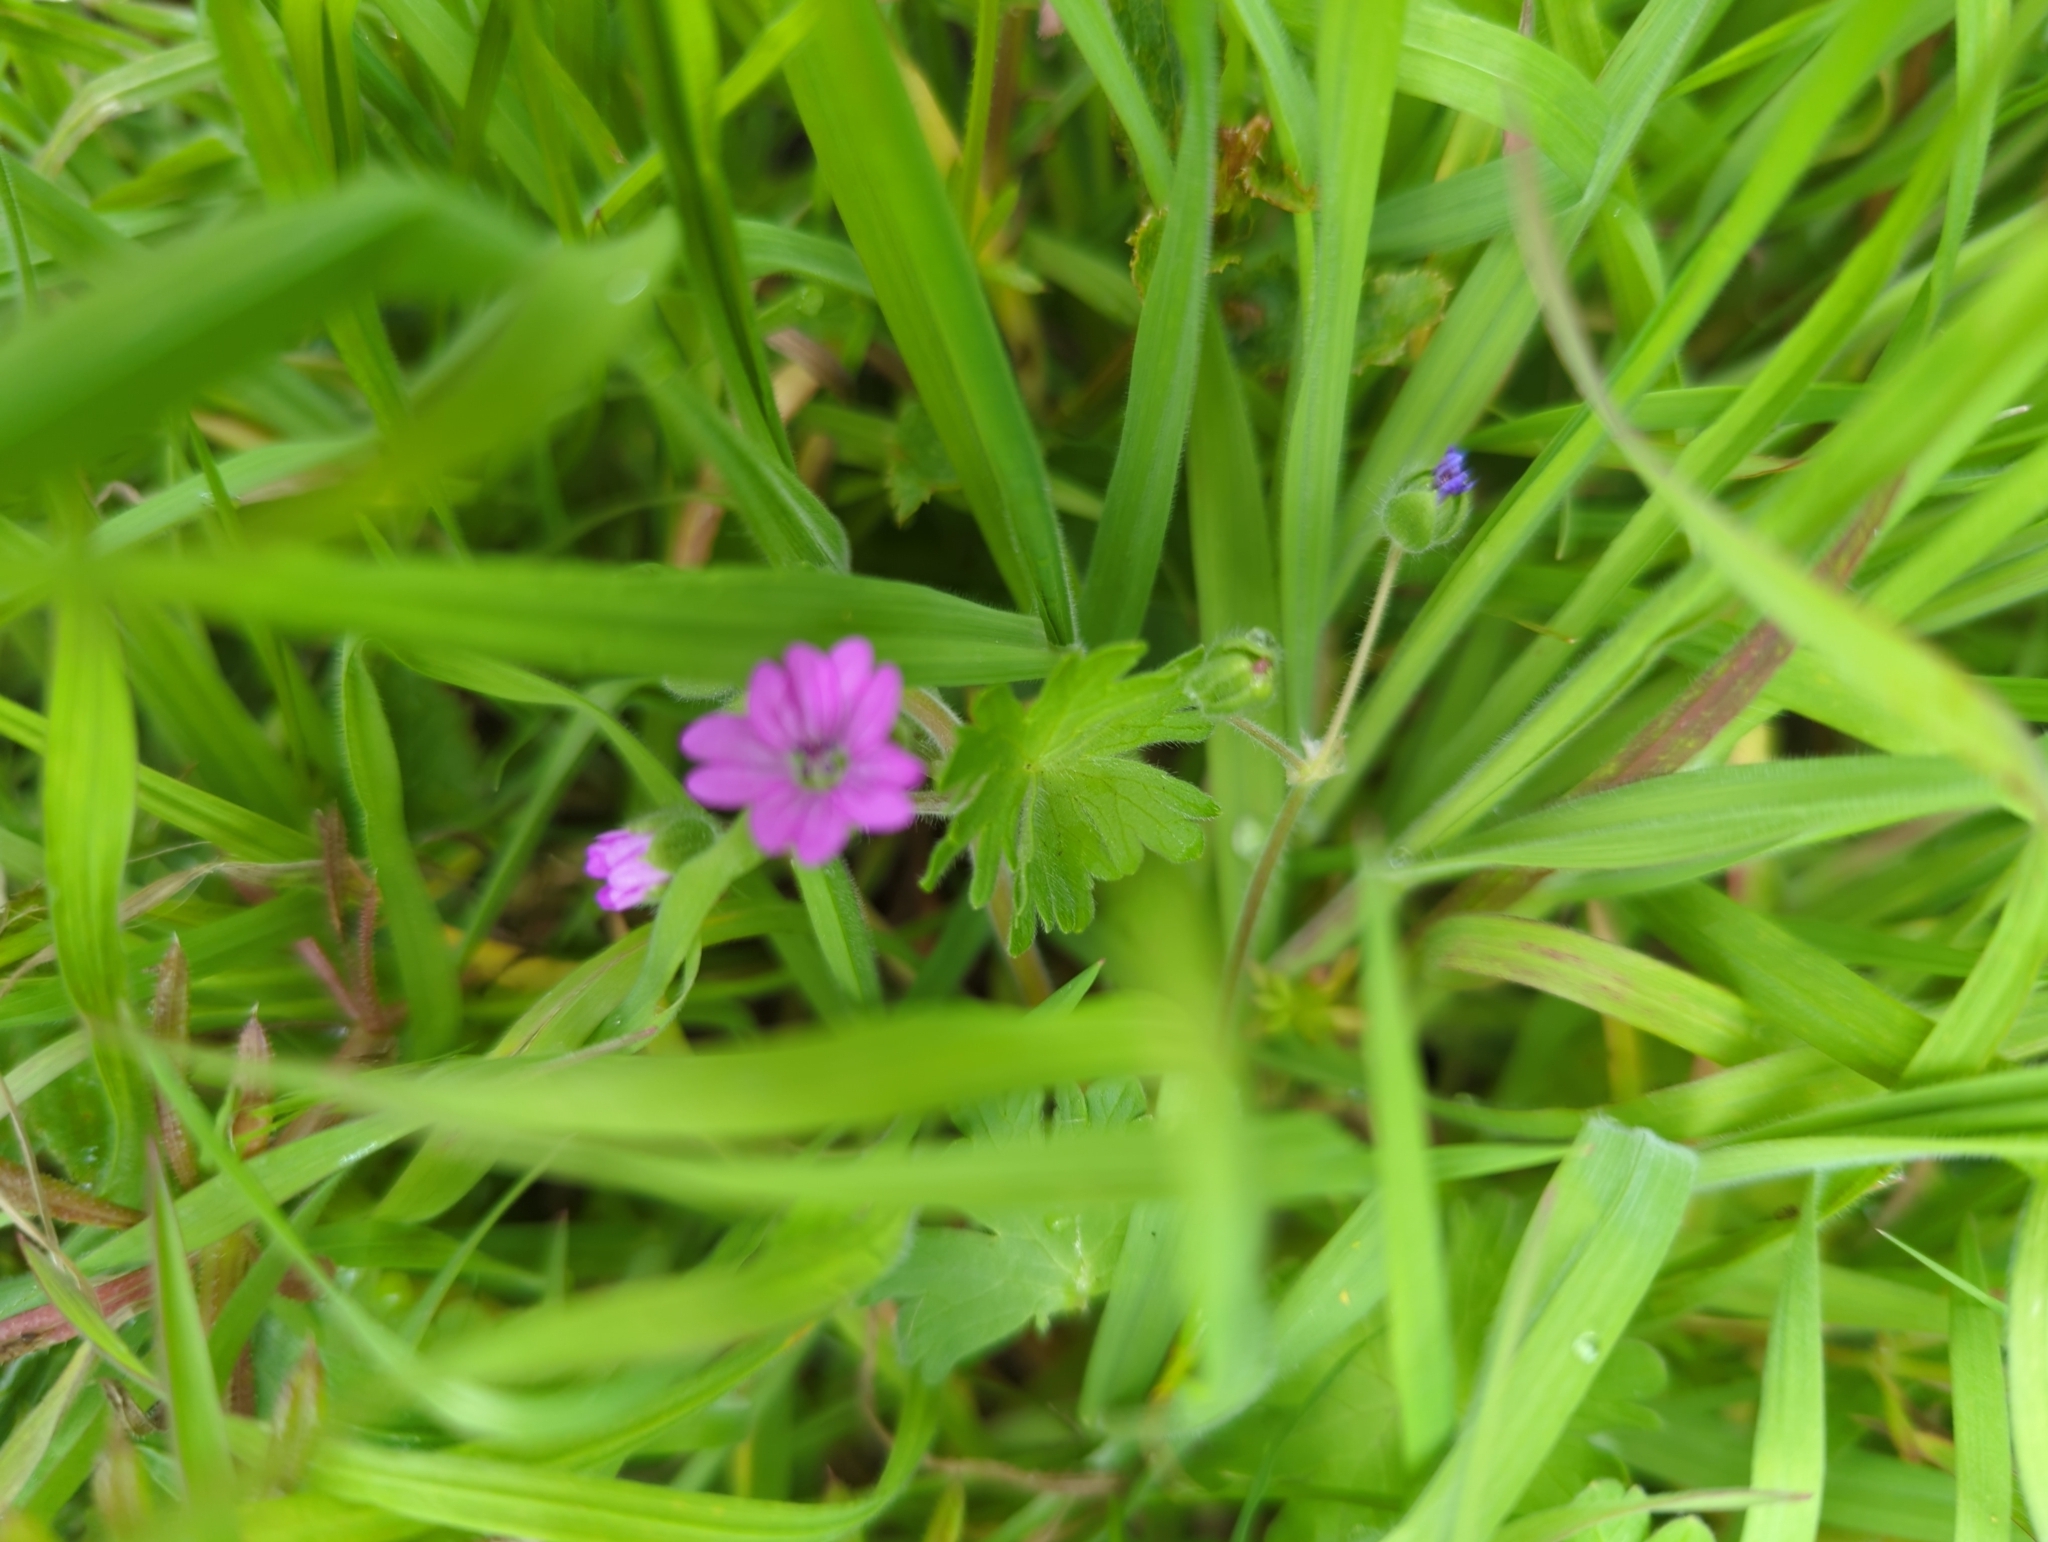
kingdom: Plantae
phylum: Tracheophyta
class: Magnoliopsida
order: Geraniales
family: Geraniaceae
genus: Geranium
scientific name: Geranium molle
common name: Dove's-foot crane's-bill
